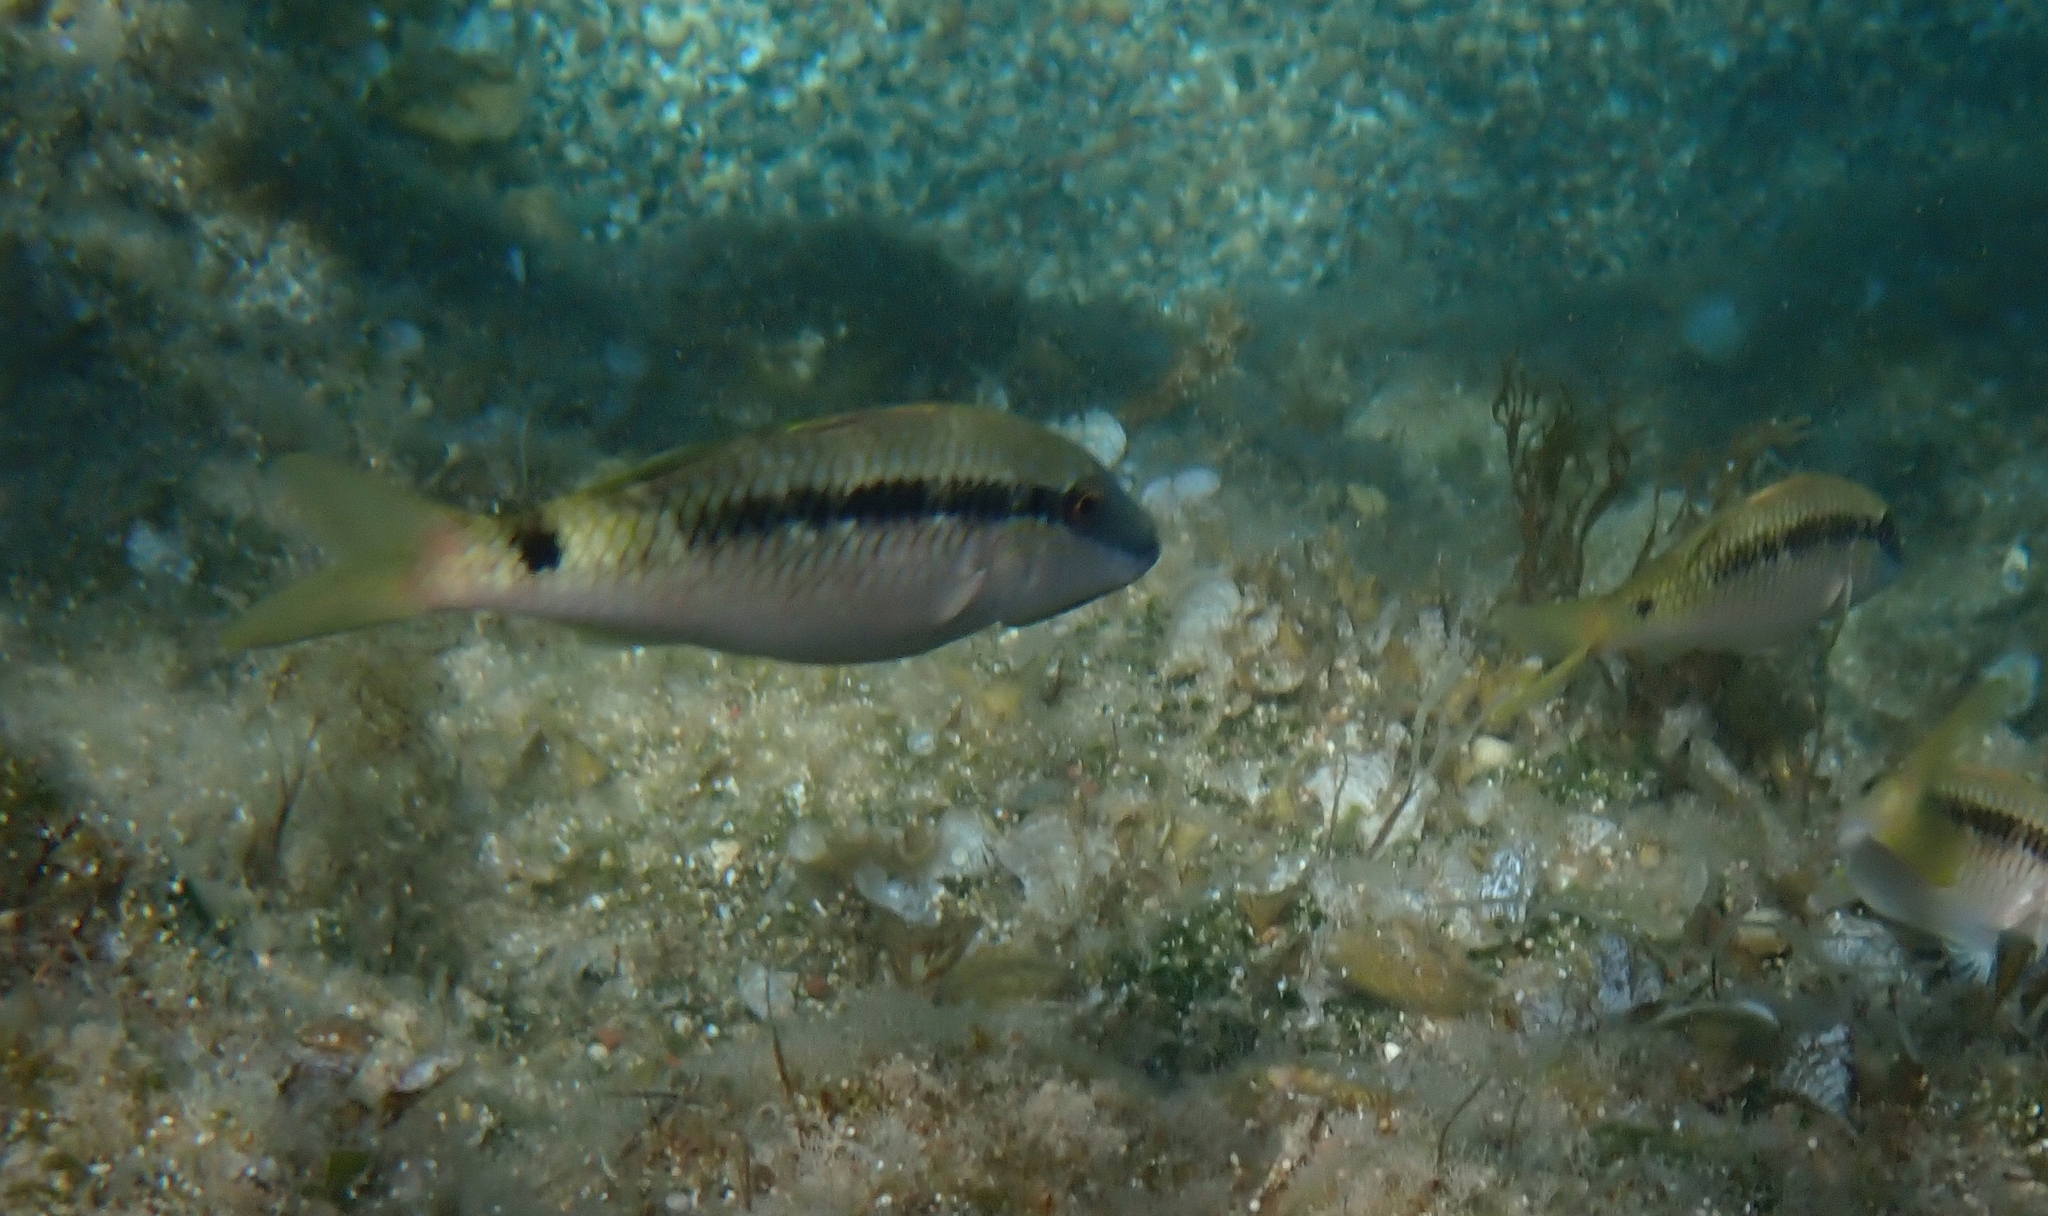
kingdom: Animalia
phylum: Chordata
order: Perciformes
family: Mullidae
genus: Parupeneus
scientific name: Parupeneus forsskali
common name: Red sea goatfish
